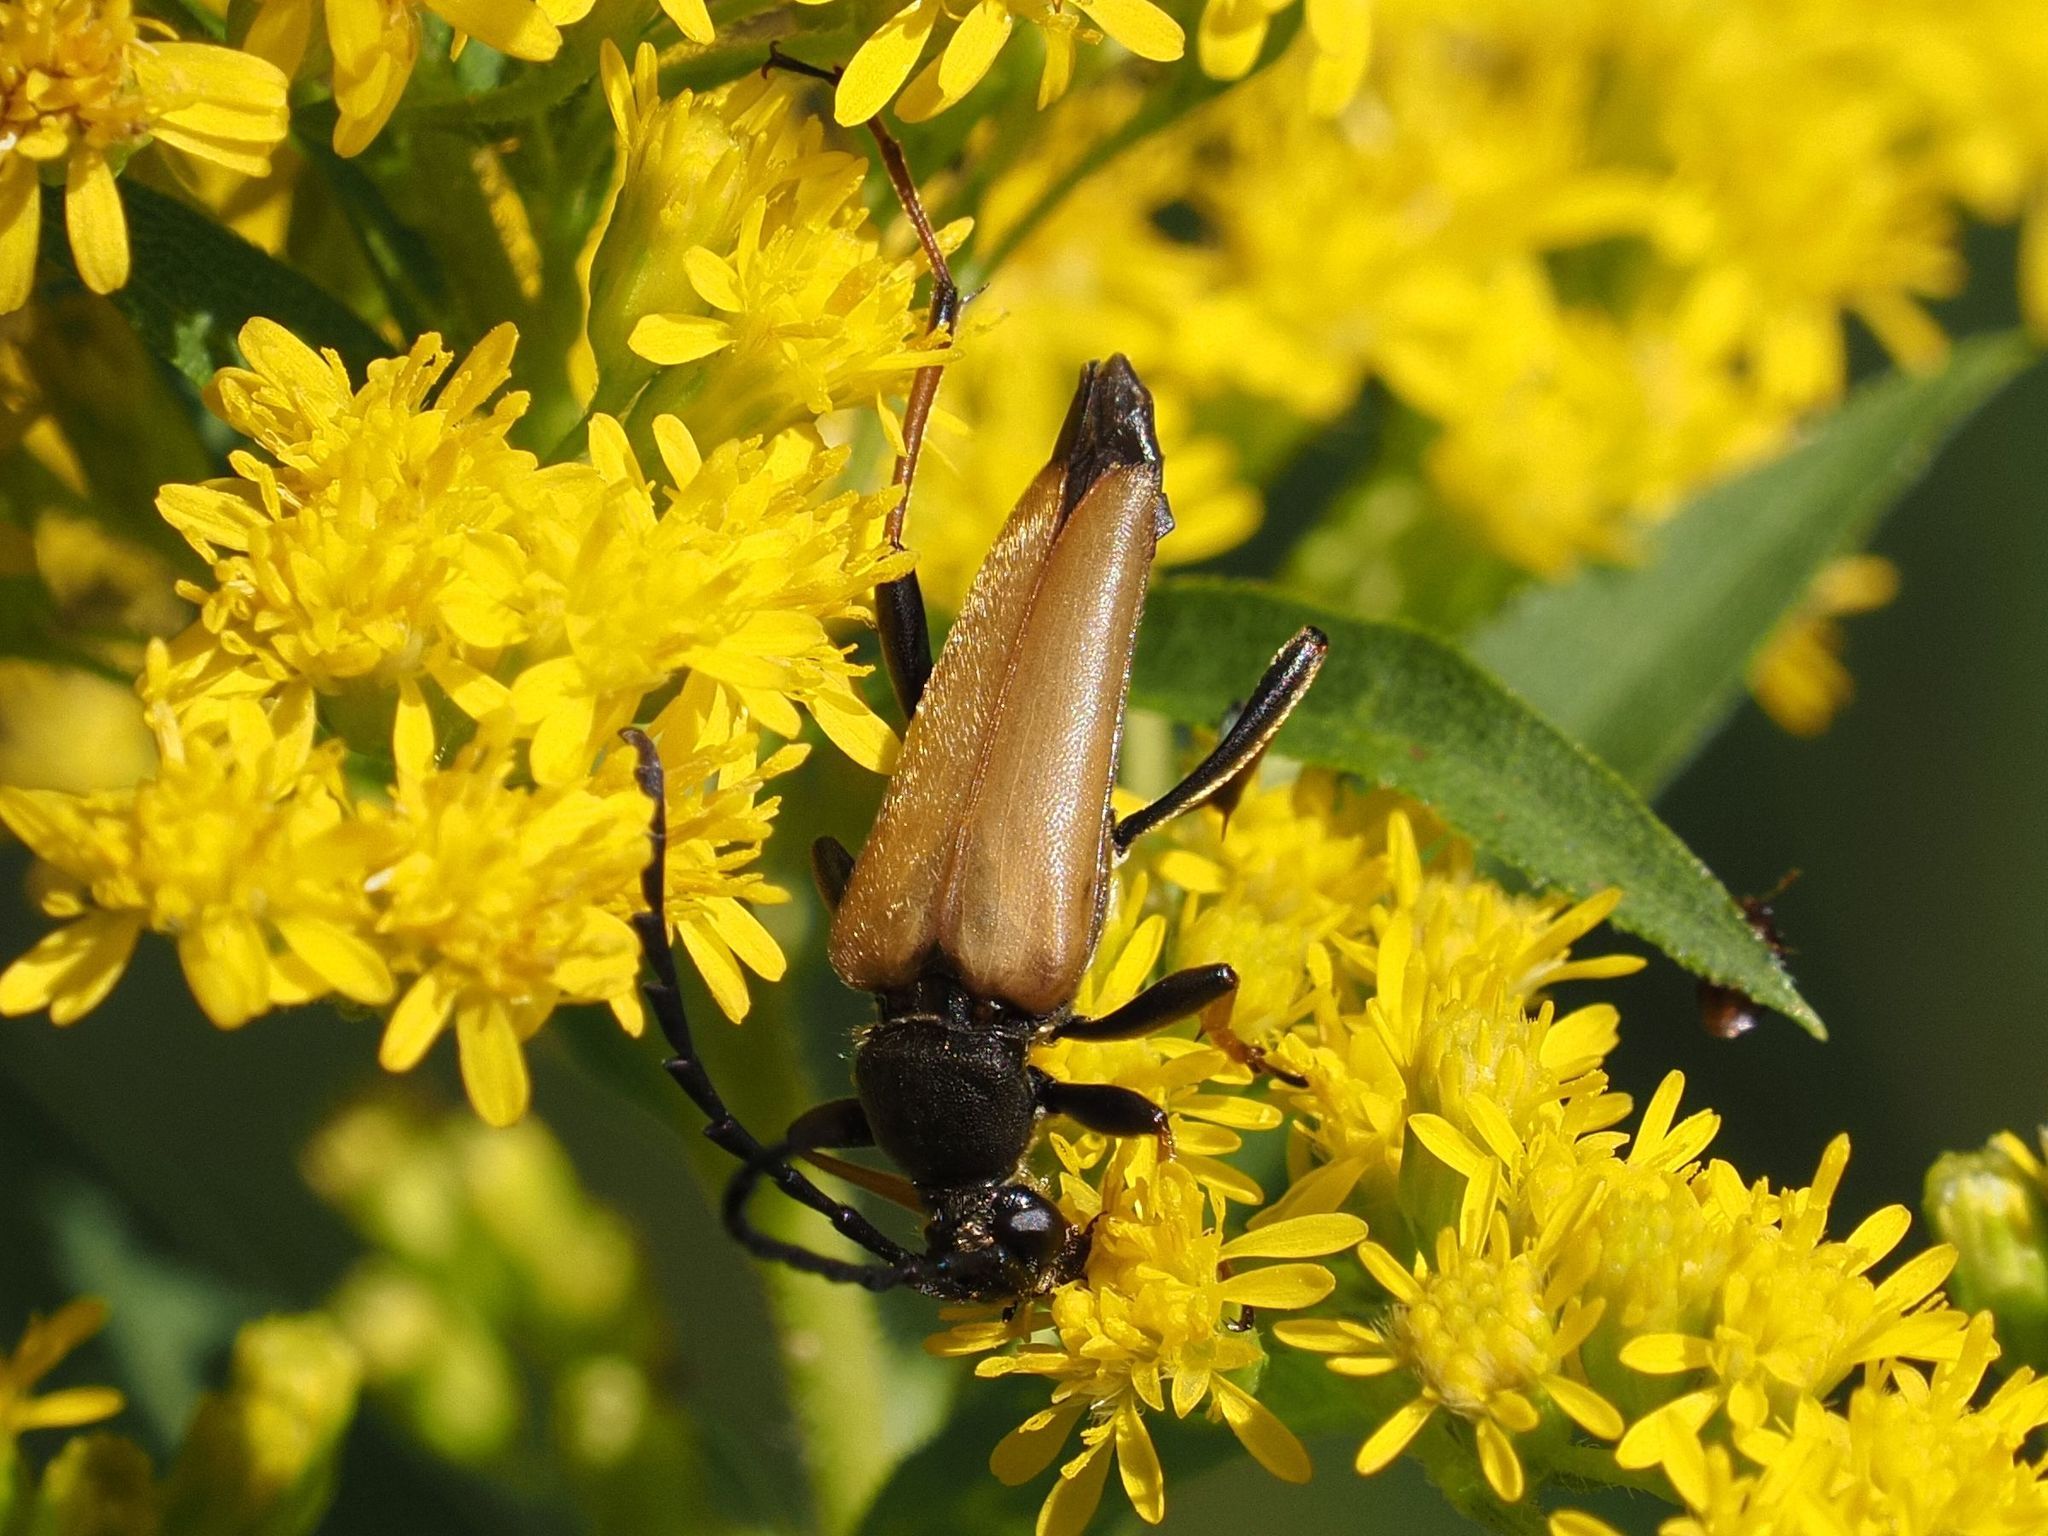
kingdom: Animalia
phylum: Arthropoda
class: Insecta
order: Coleoptera
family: Cerambycidae
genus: Stictoleptura
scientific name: Stictoleptura rubra
